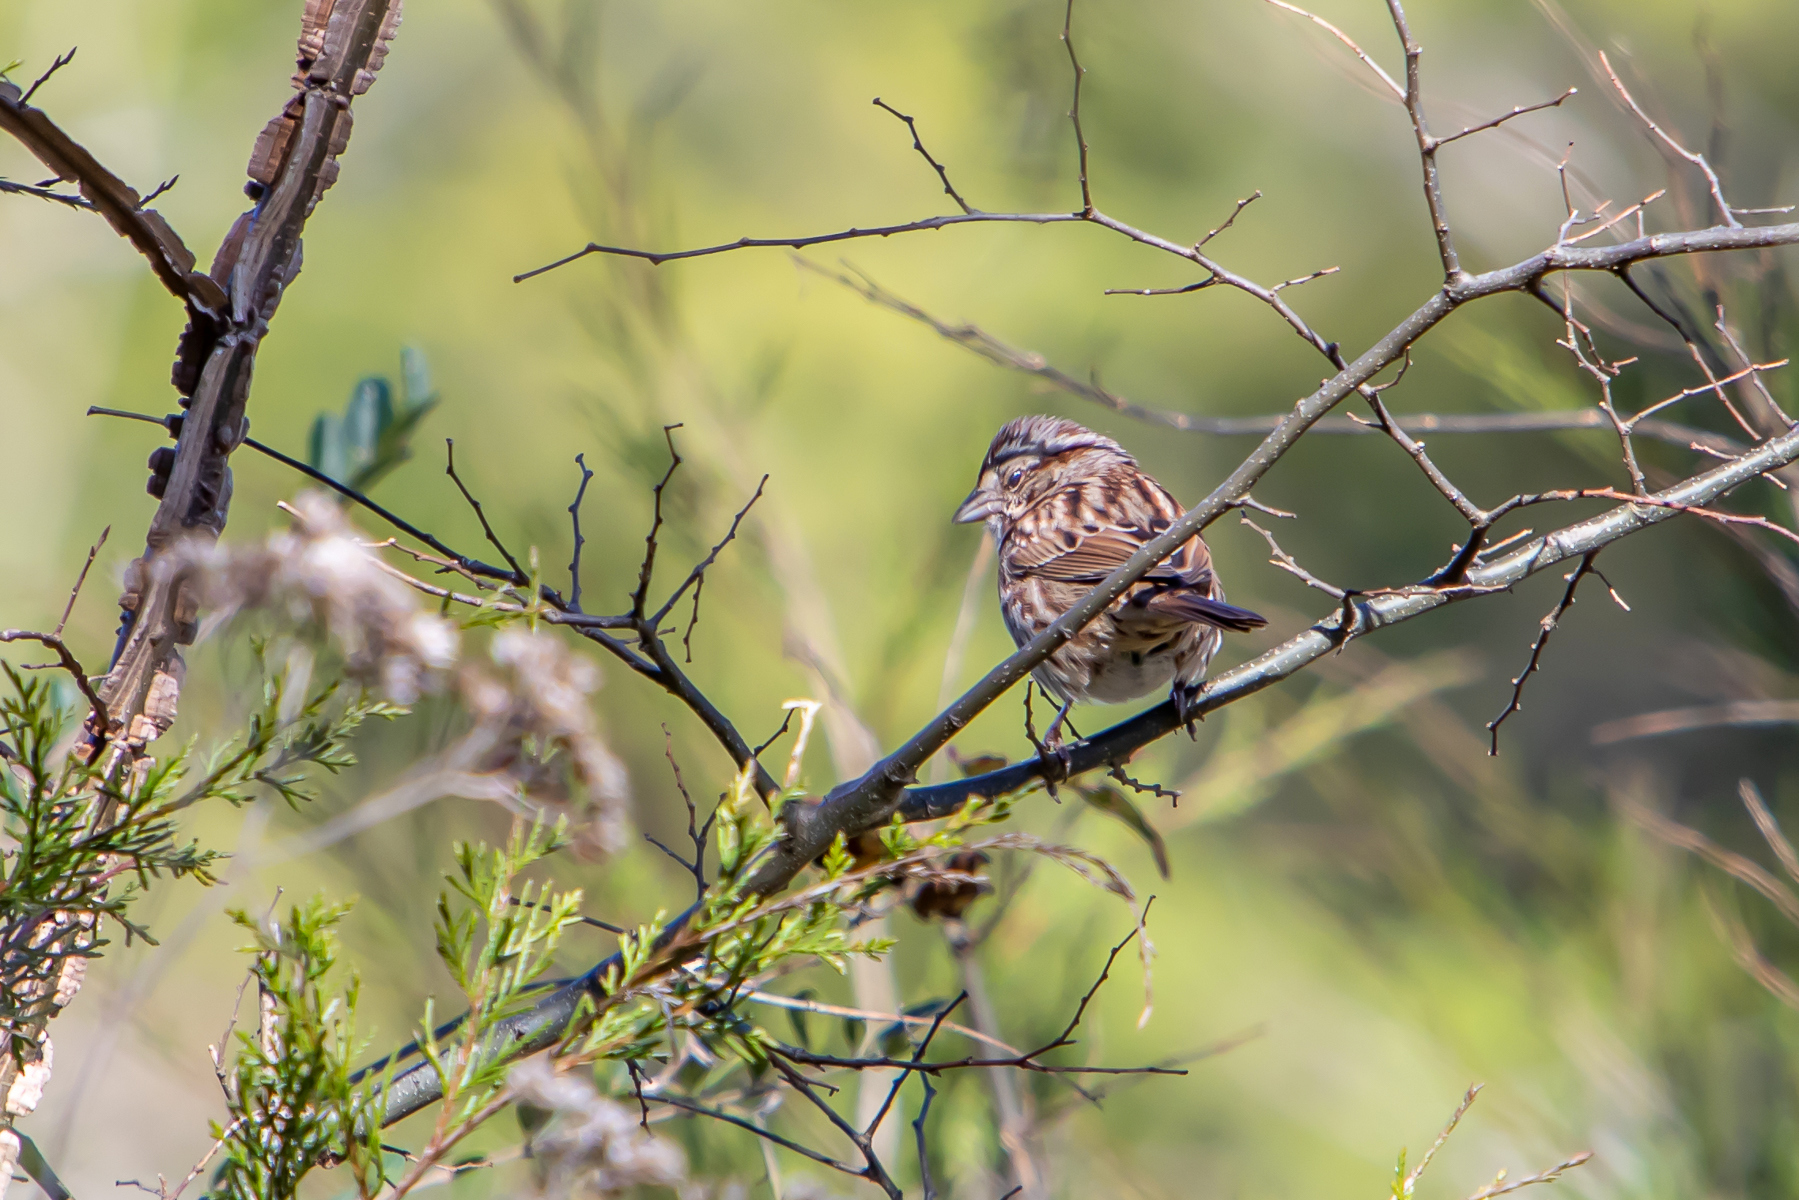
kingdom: Animalia
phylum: Chordata
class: Aves
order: Passeriformes
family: Passerellidae
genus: Melospiza
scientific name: Melospiza melodia
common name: Song sparrow
